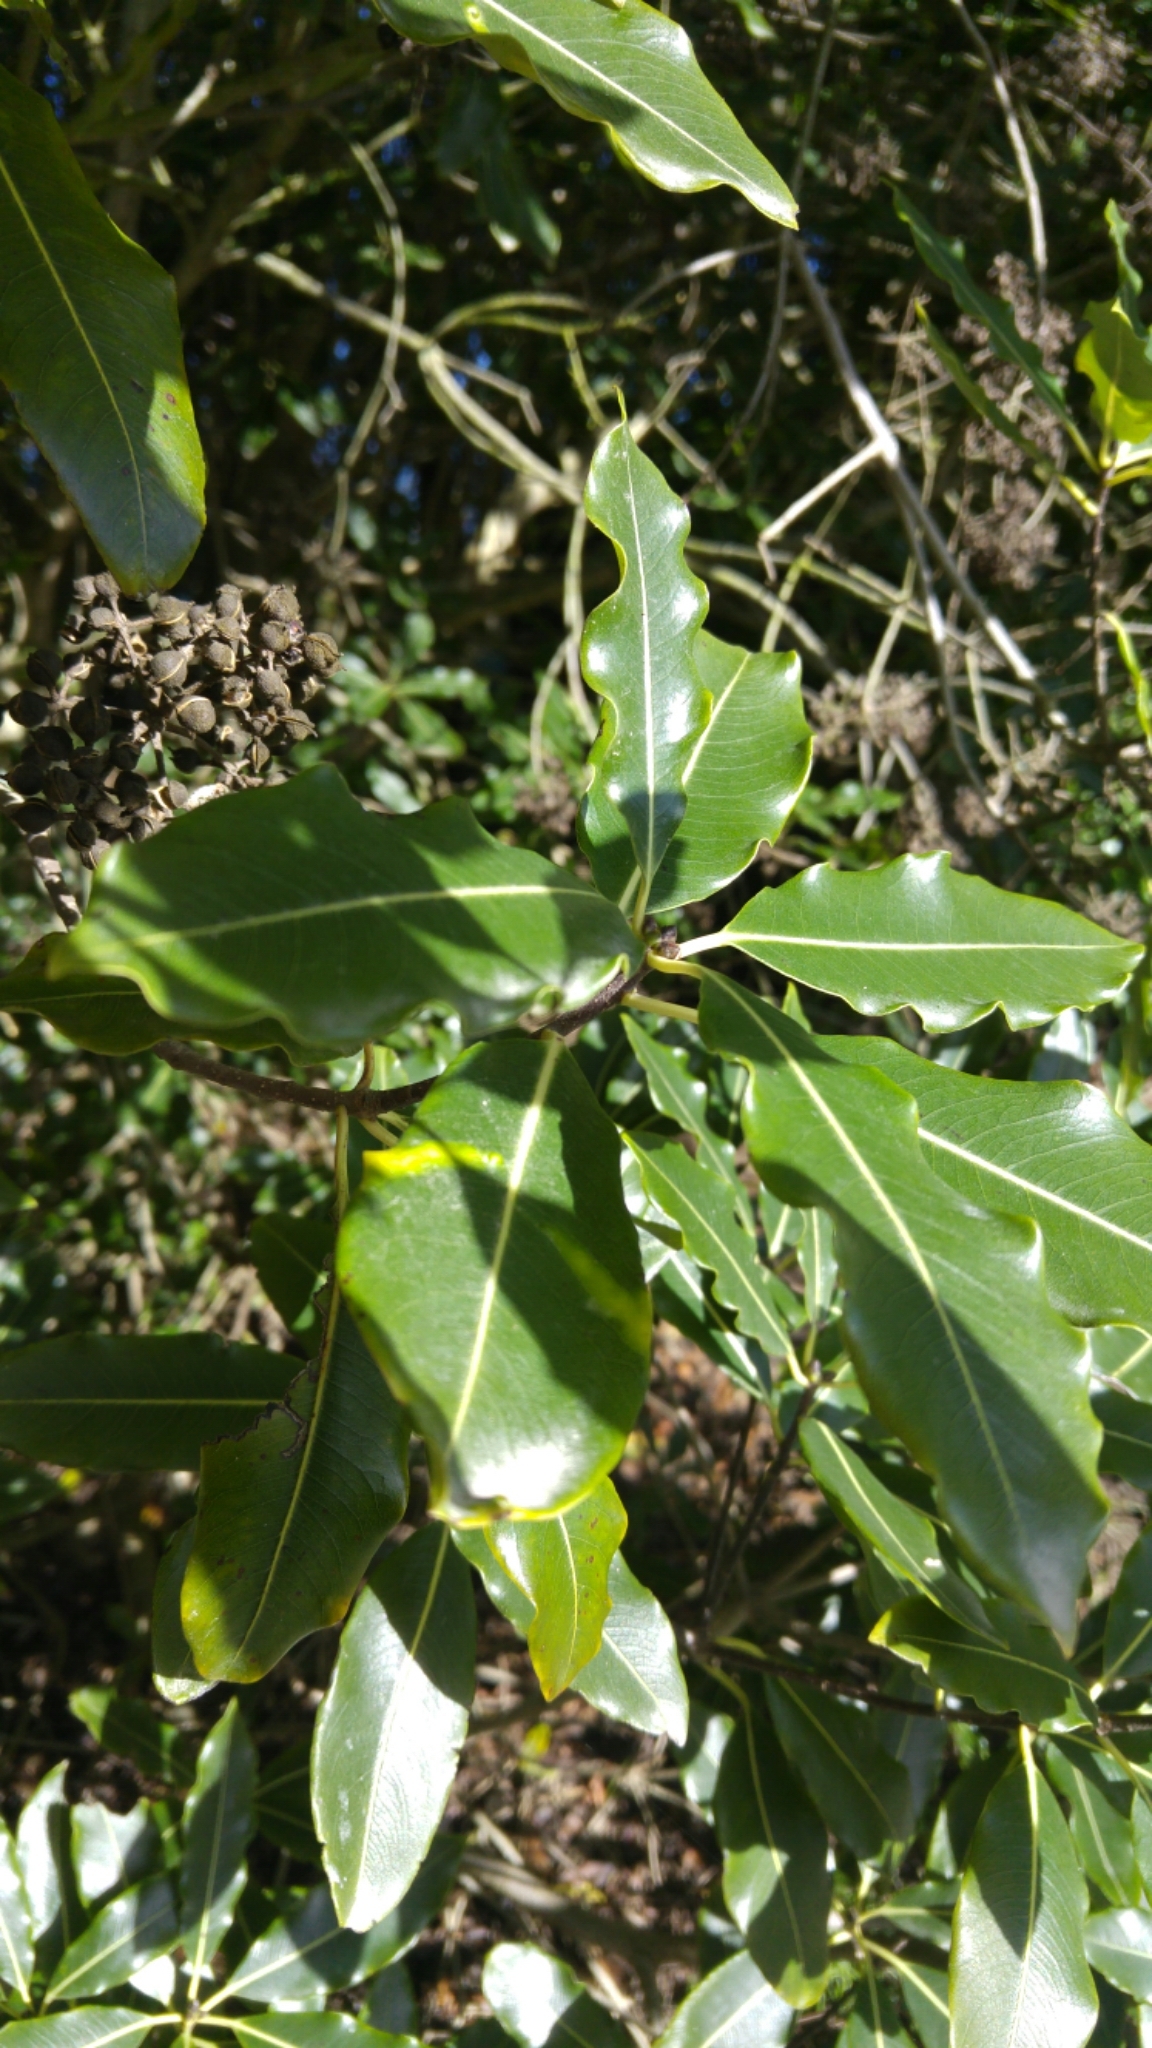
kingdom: Plantae
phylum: Tracheophyta
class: Magnoliopsida
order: Apiales
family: Pittosporaceae
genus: Pittosporum
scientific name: Pittosporum eugenioides
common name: Lemonwood
